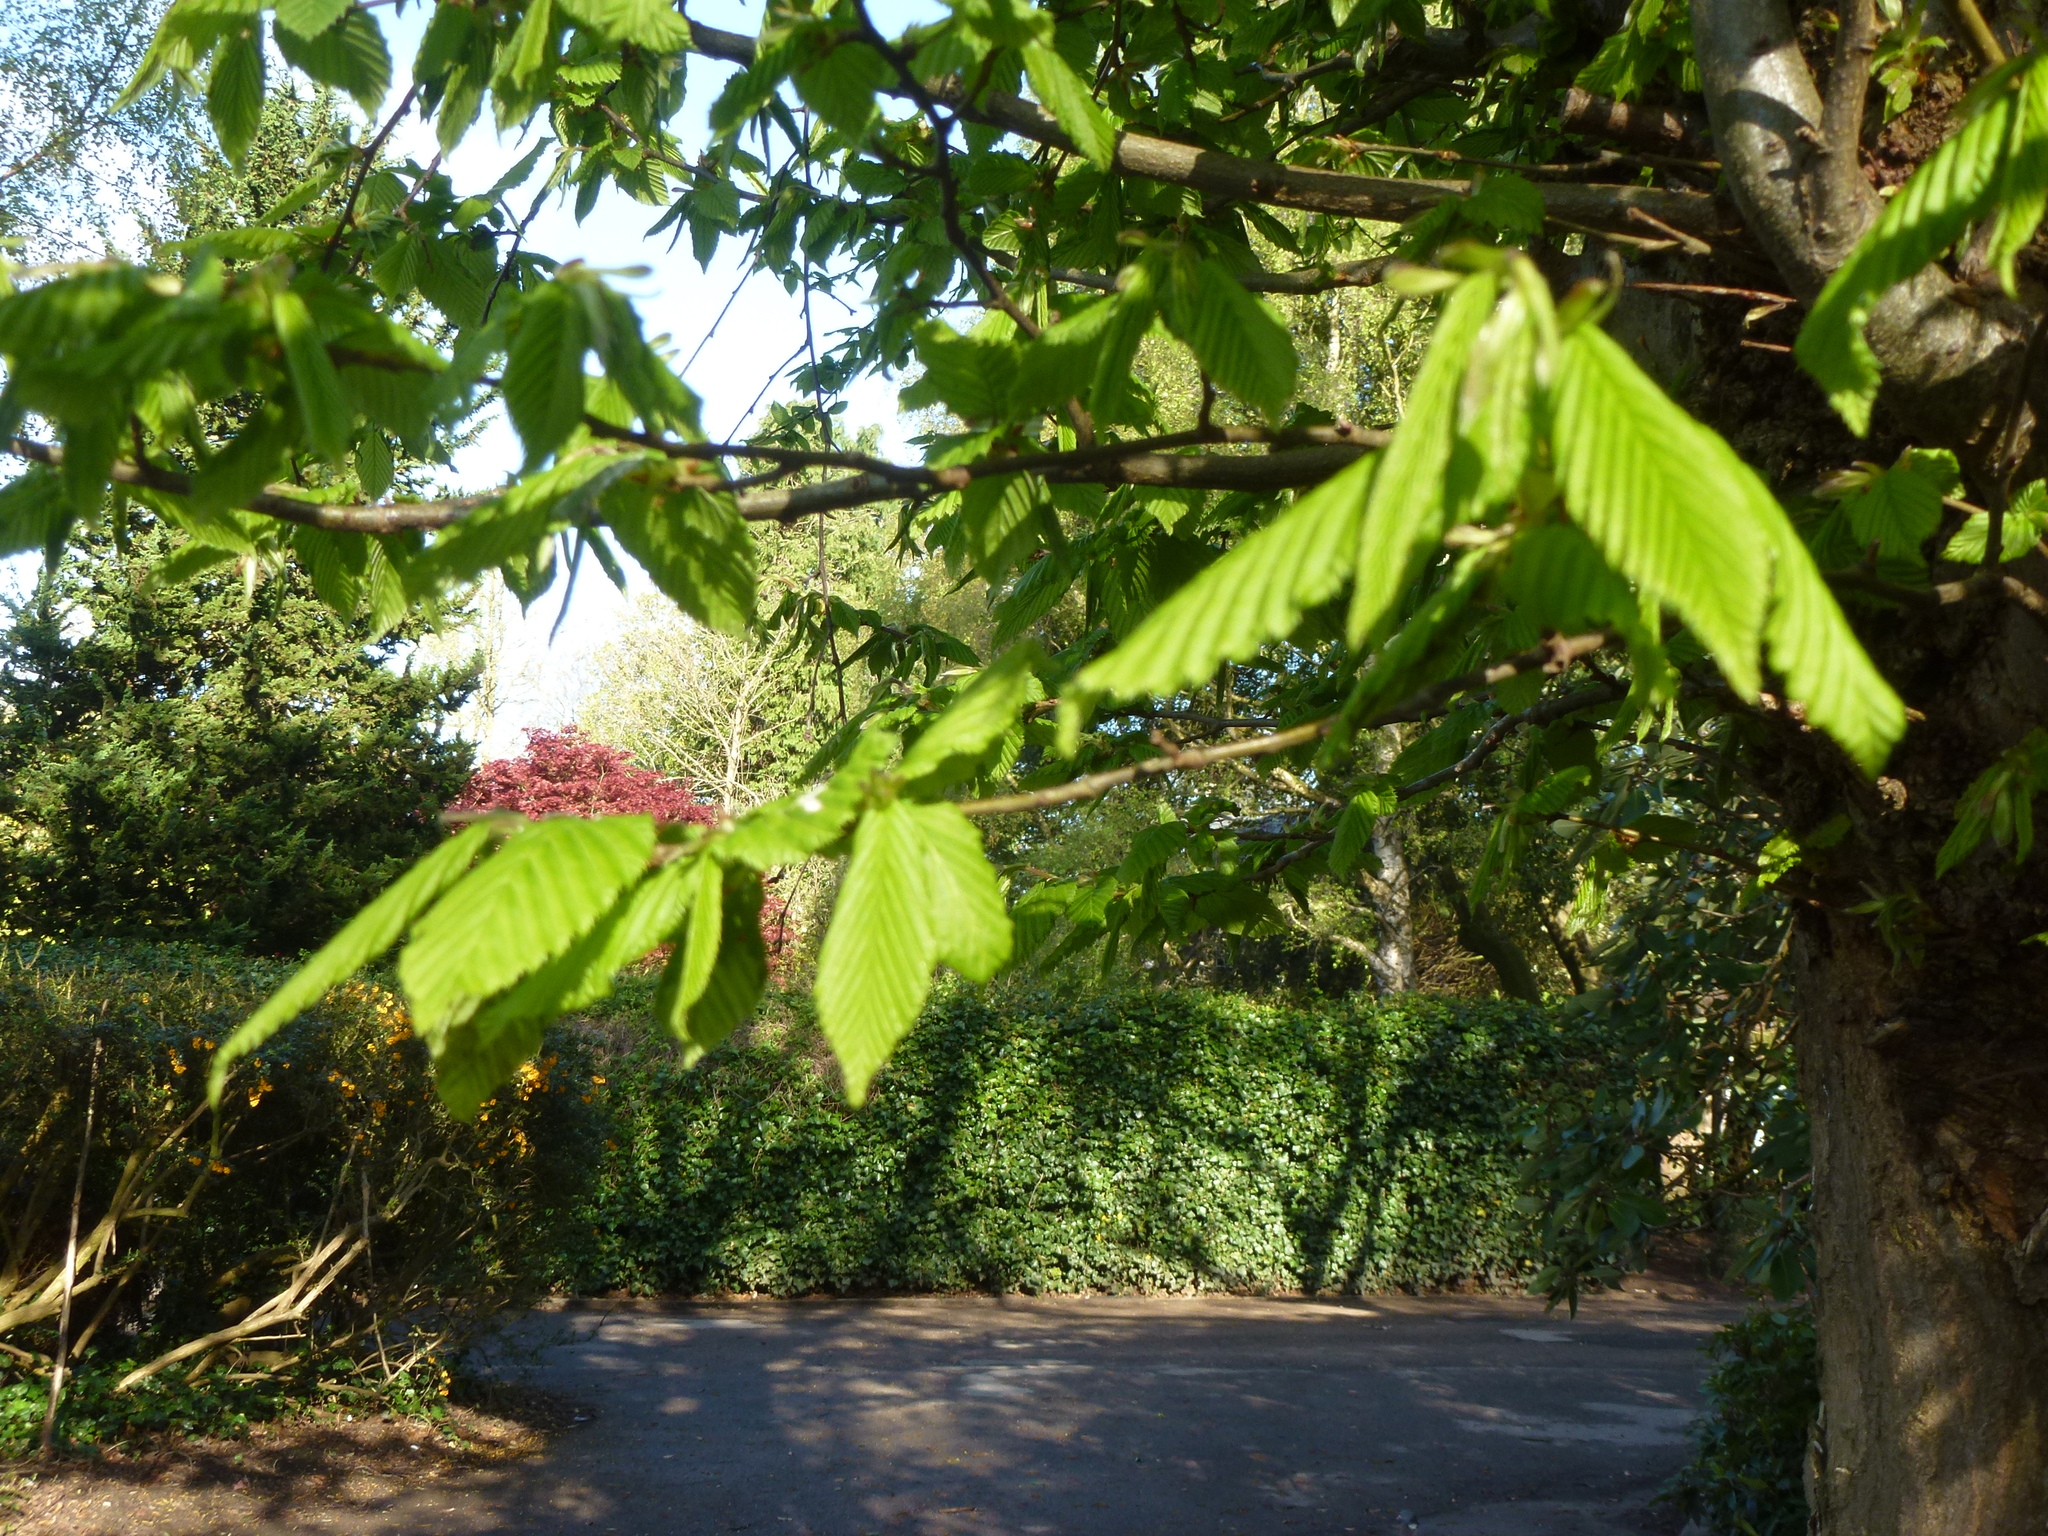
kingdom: Plantae
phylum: Tracheophyta
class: Magnoliopsida
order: Fagales
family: Betulaceae
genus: Carpinus
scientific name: Carpinus betulus
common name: Hornbeam
